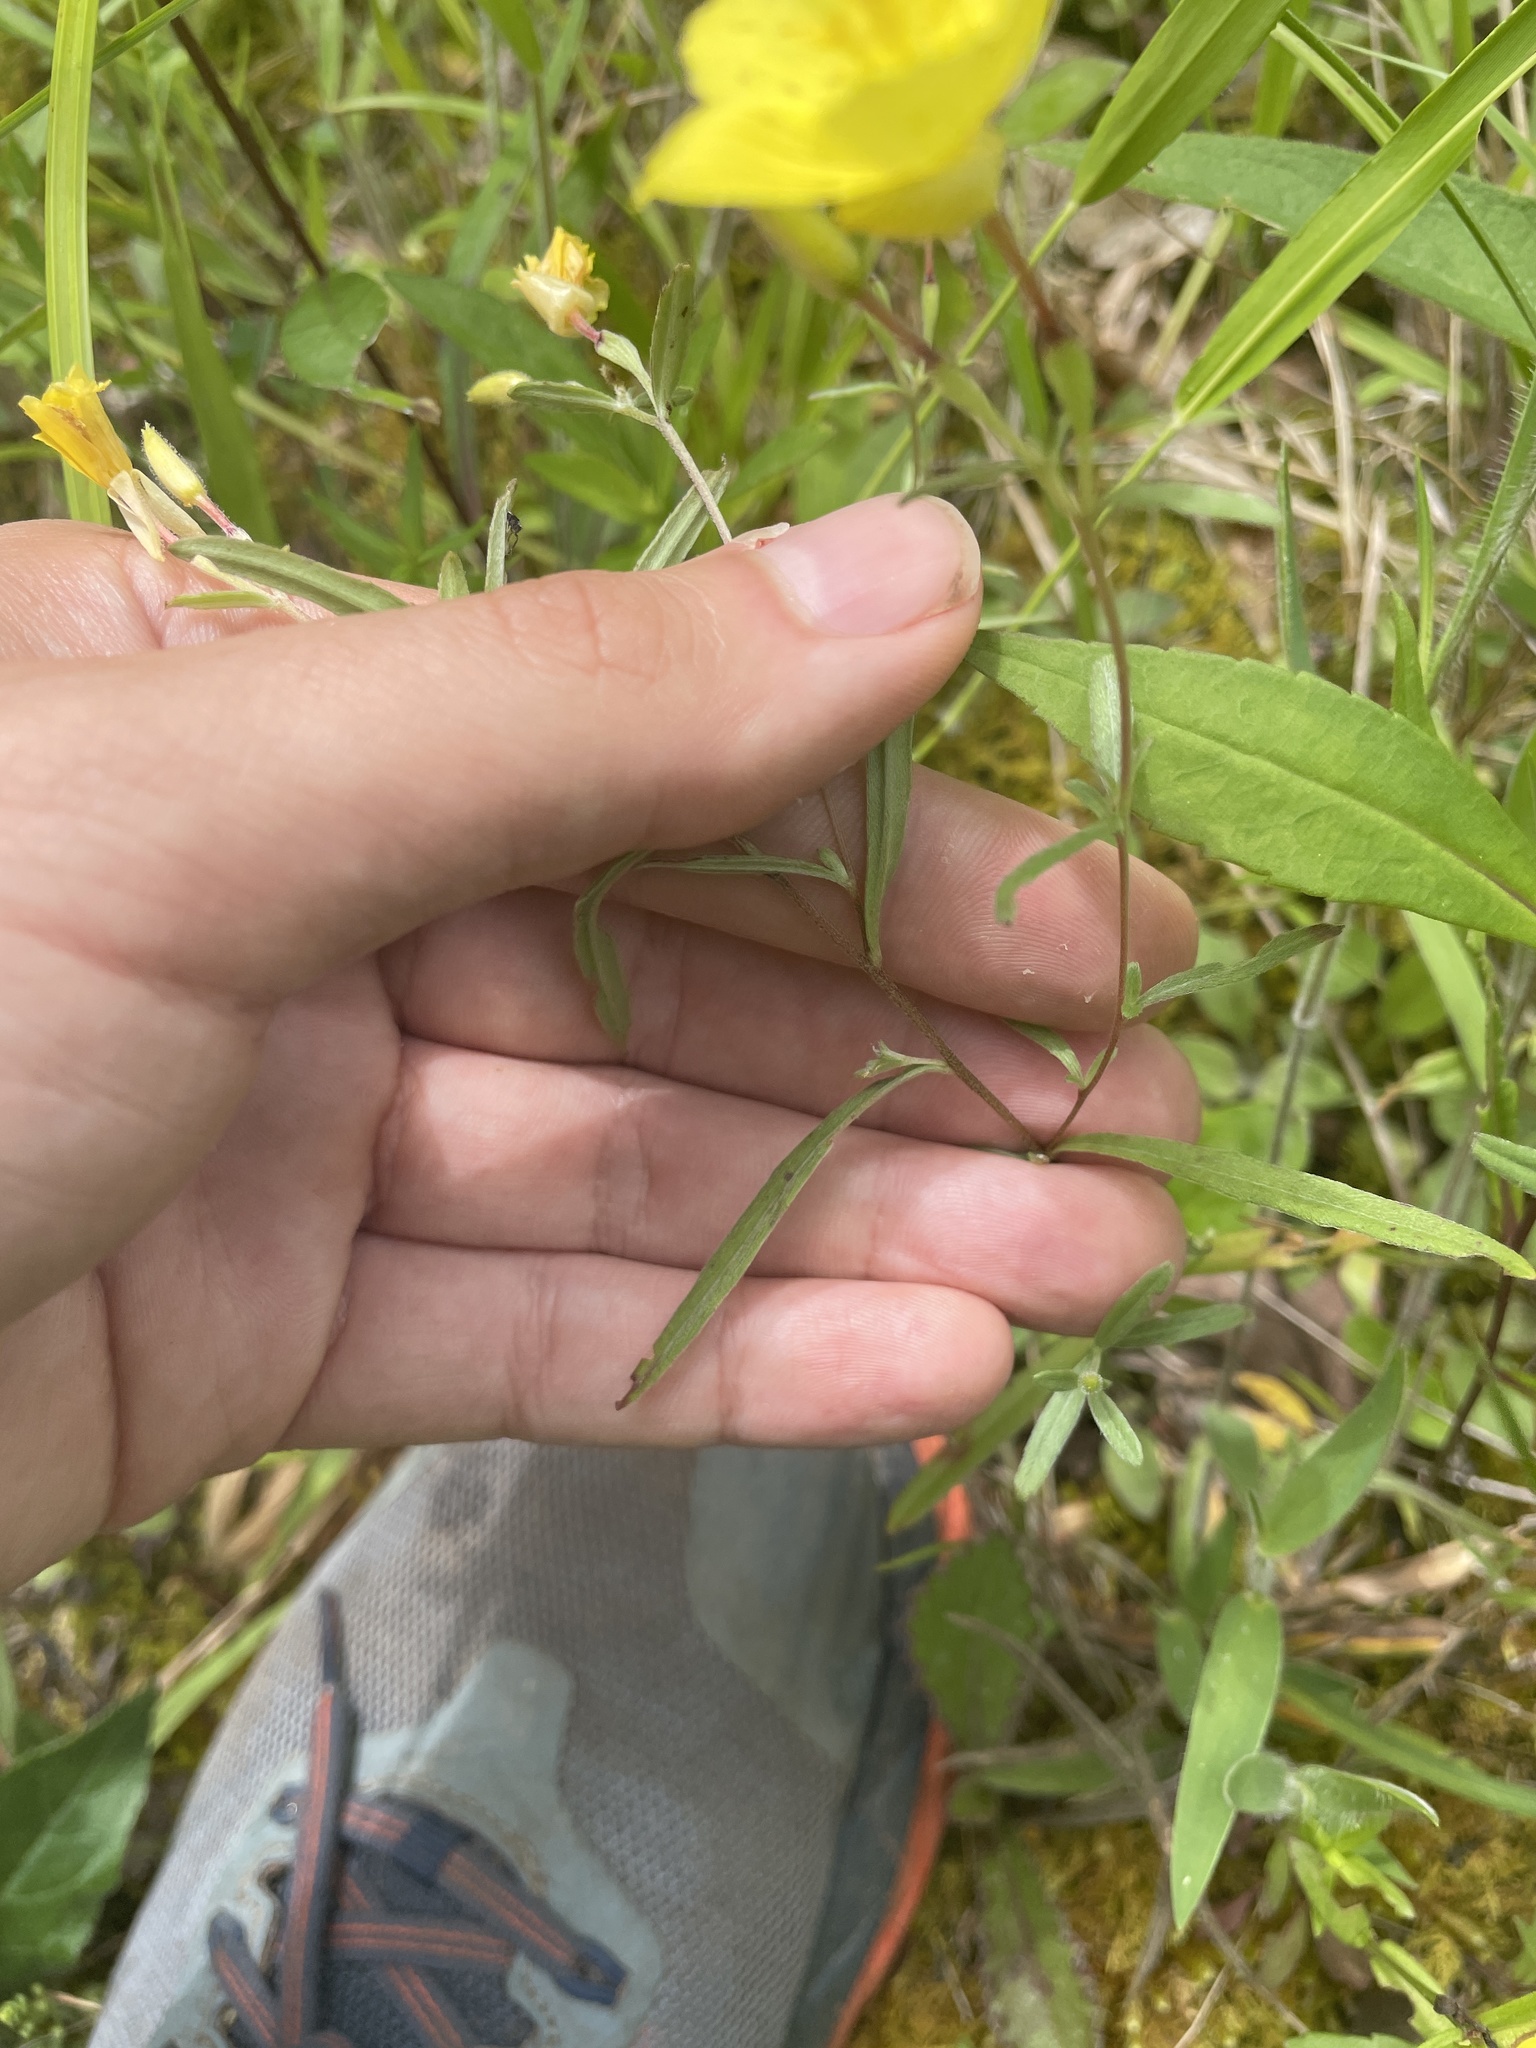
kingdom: Plantae
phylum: Tracheophyta
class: Magnoliopsida
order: Myrtales
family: Onagraceae
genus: Oenothera
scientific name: Oenothera fruticosa
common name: Southern sundrops
